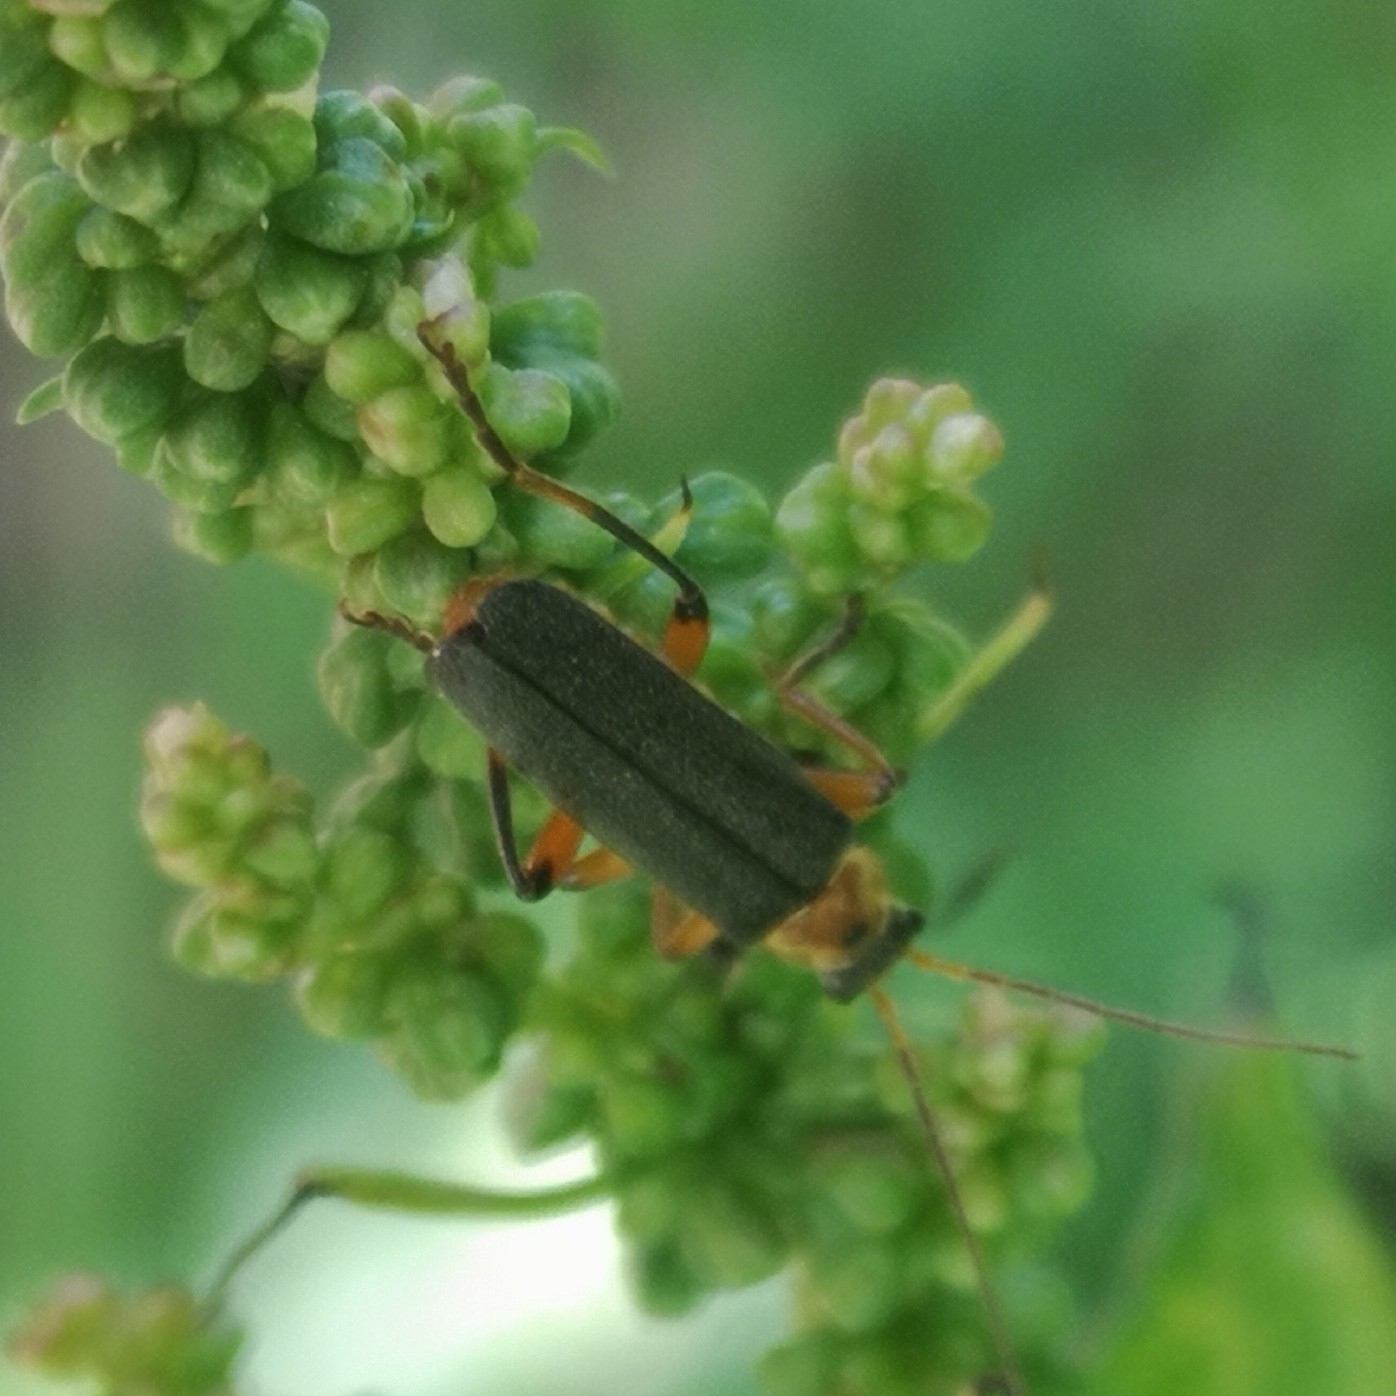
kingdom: Animalia
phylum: Arthropoda
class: Insecta
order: Coleoptera
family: Cantharidae
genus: Cantharis
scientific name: Cantharis nigricans
